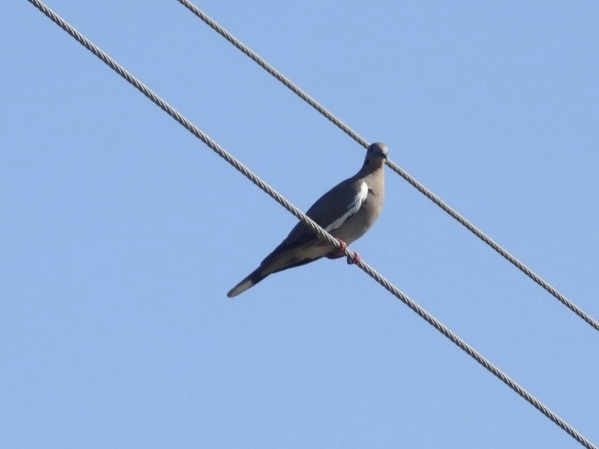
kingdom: Animalia
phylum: Chordata
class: Aves
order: Columbiformes
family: Columbidae
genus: Zenaida
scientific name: Zenaida asiatica
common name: White-winged dove
